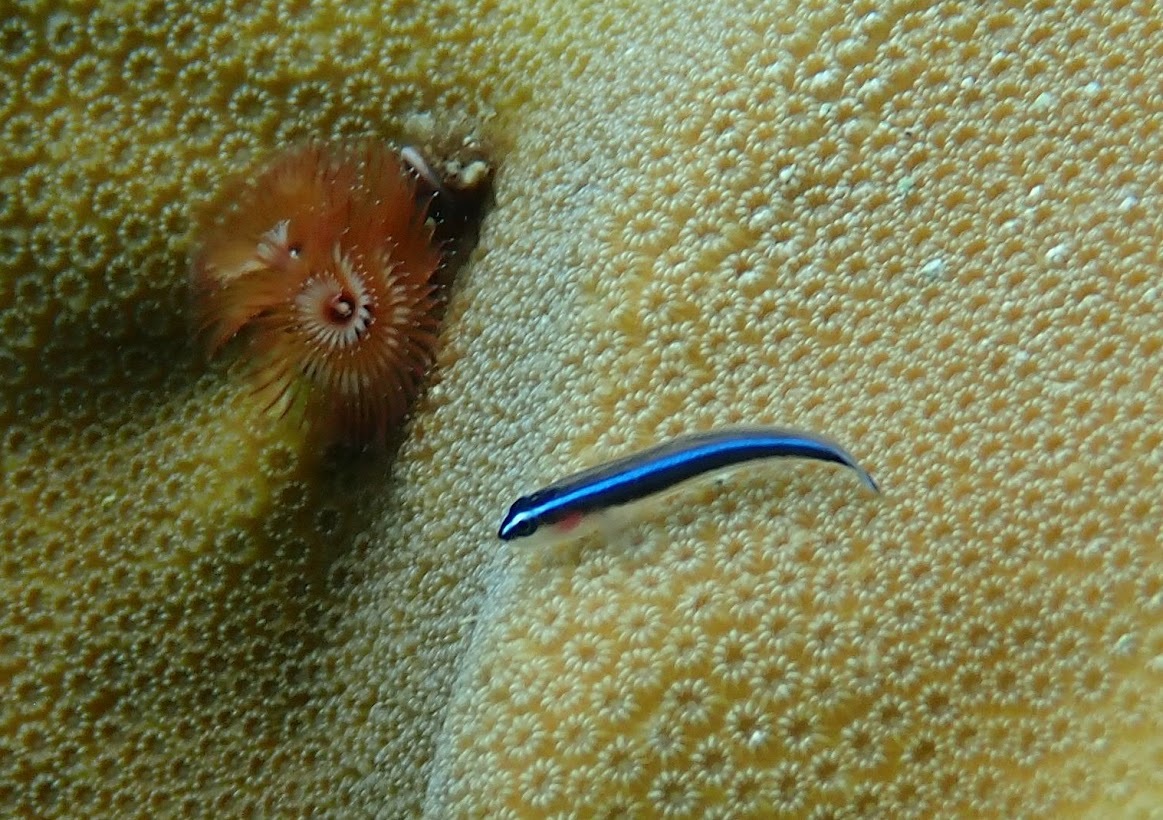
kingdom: Animalia
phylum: Chordata
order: Perciformes
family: Gobiidae
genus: Elacatinus
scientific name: Elacatinus lobeli
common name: Caribbean neon goby
